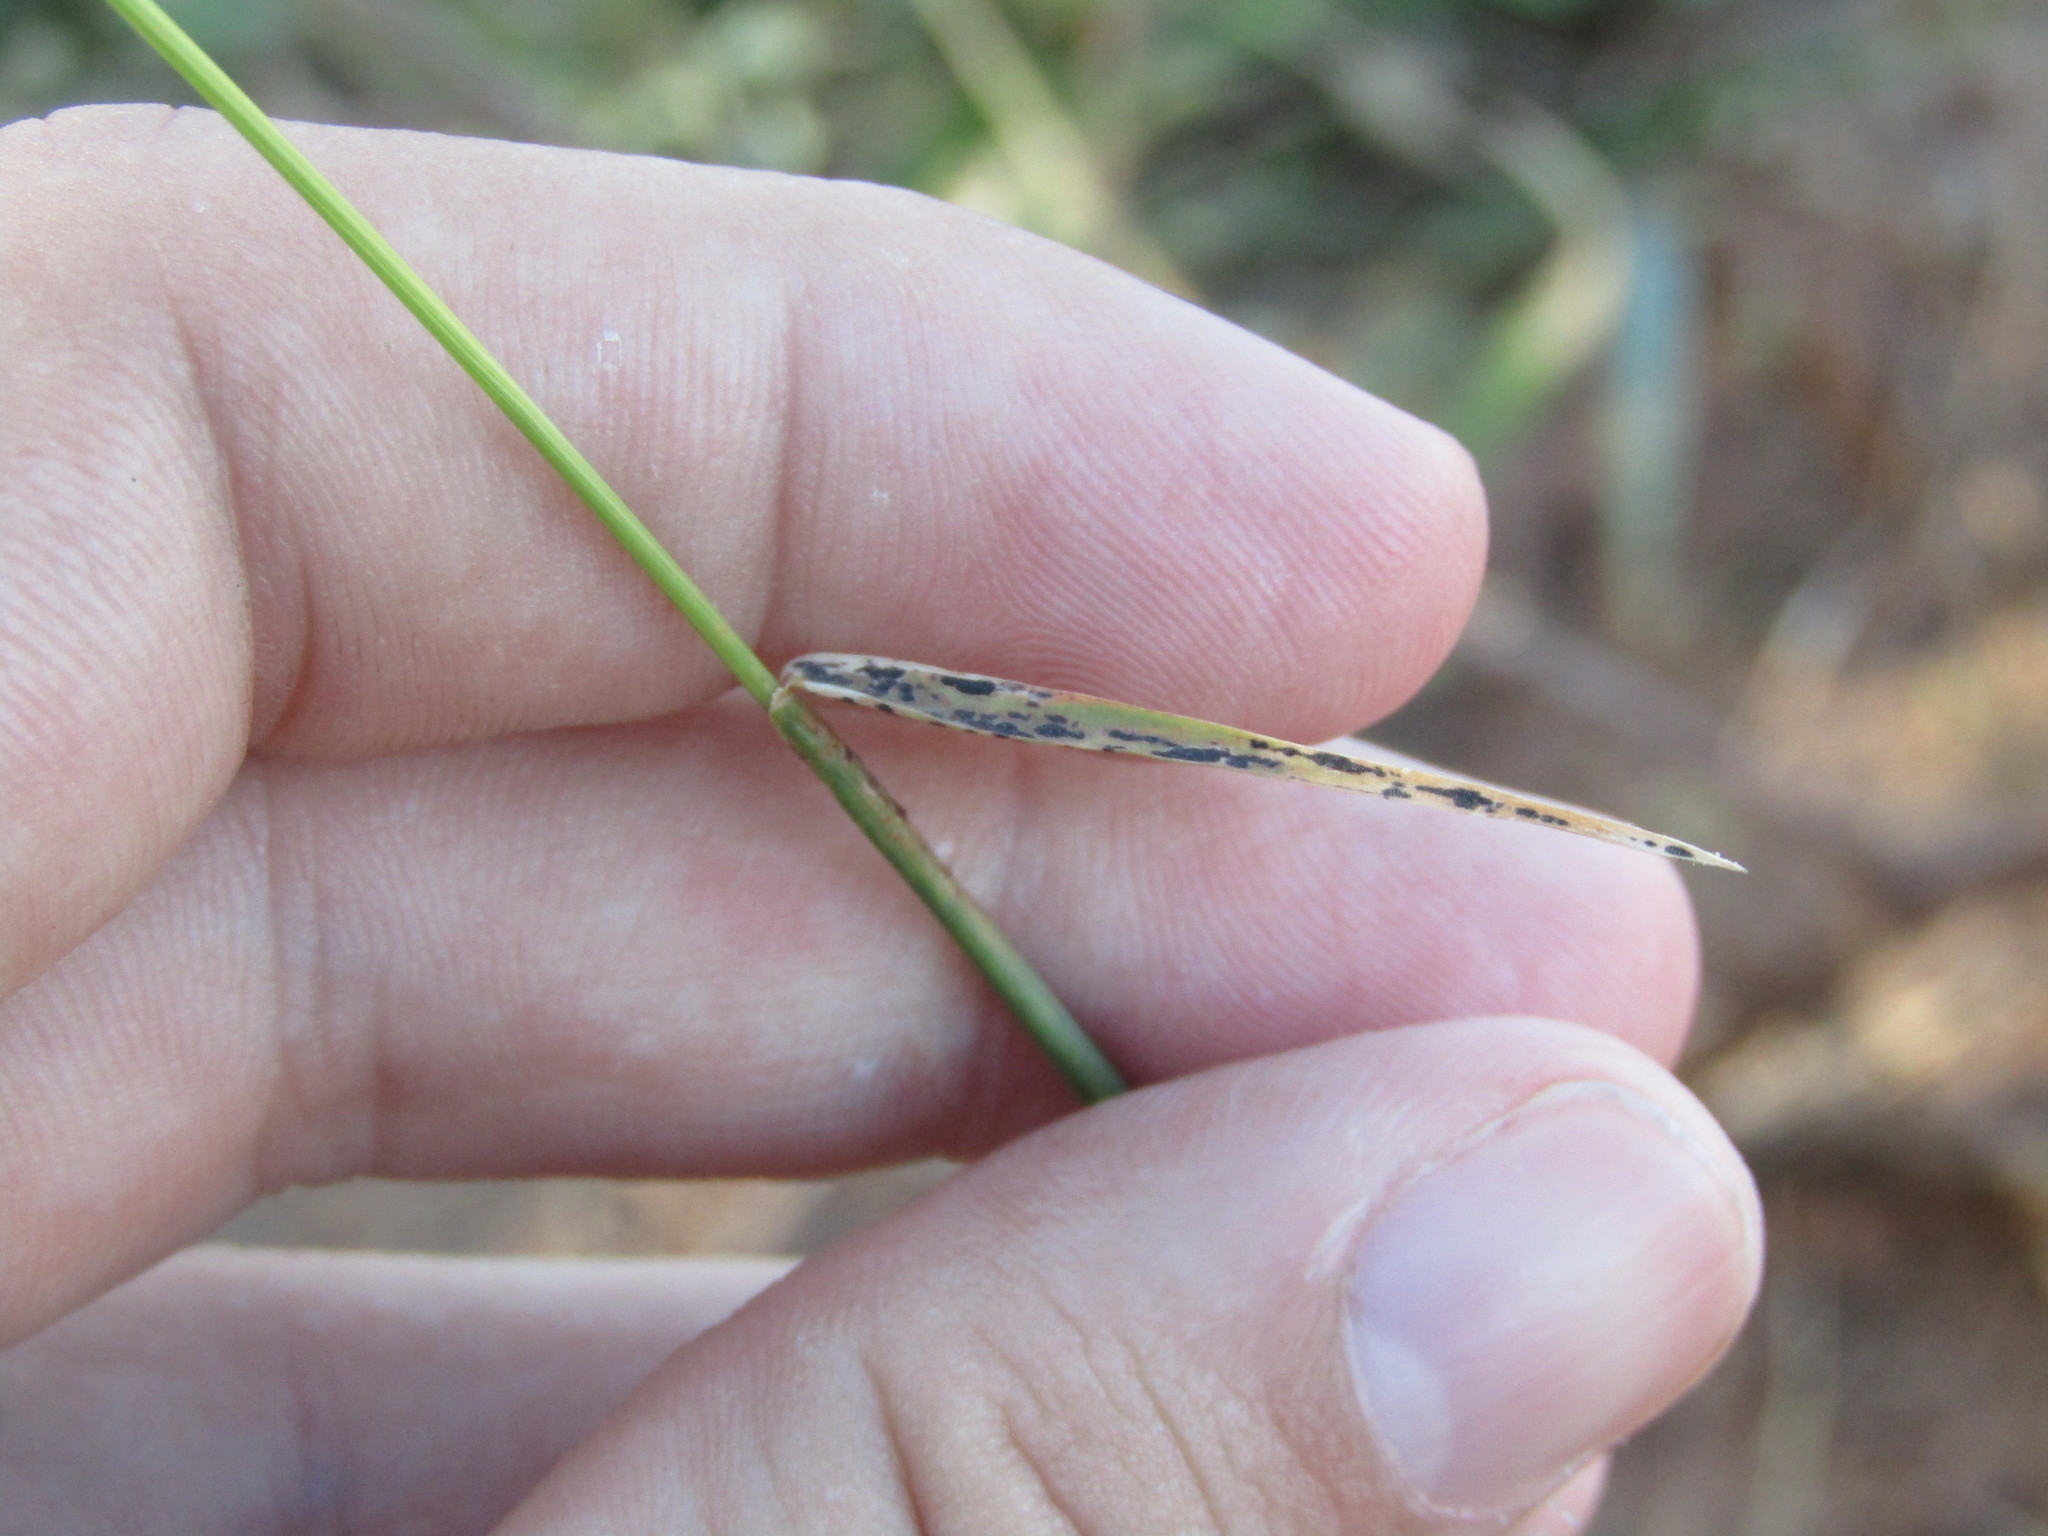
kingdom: Plantae
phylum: Tracheophyta
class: Liliopsida
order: Poales
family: Poaceae
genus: Chloris
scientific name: Chloris virgata
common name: Feathery rhodes-grass
